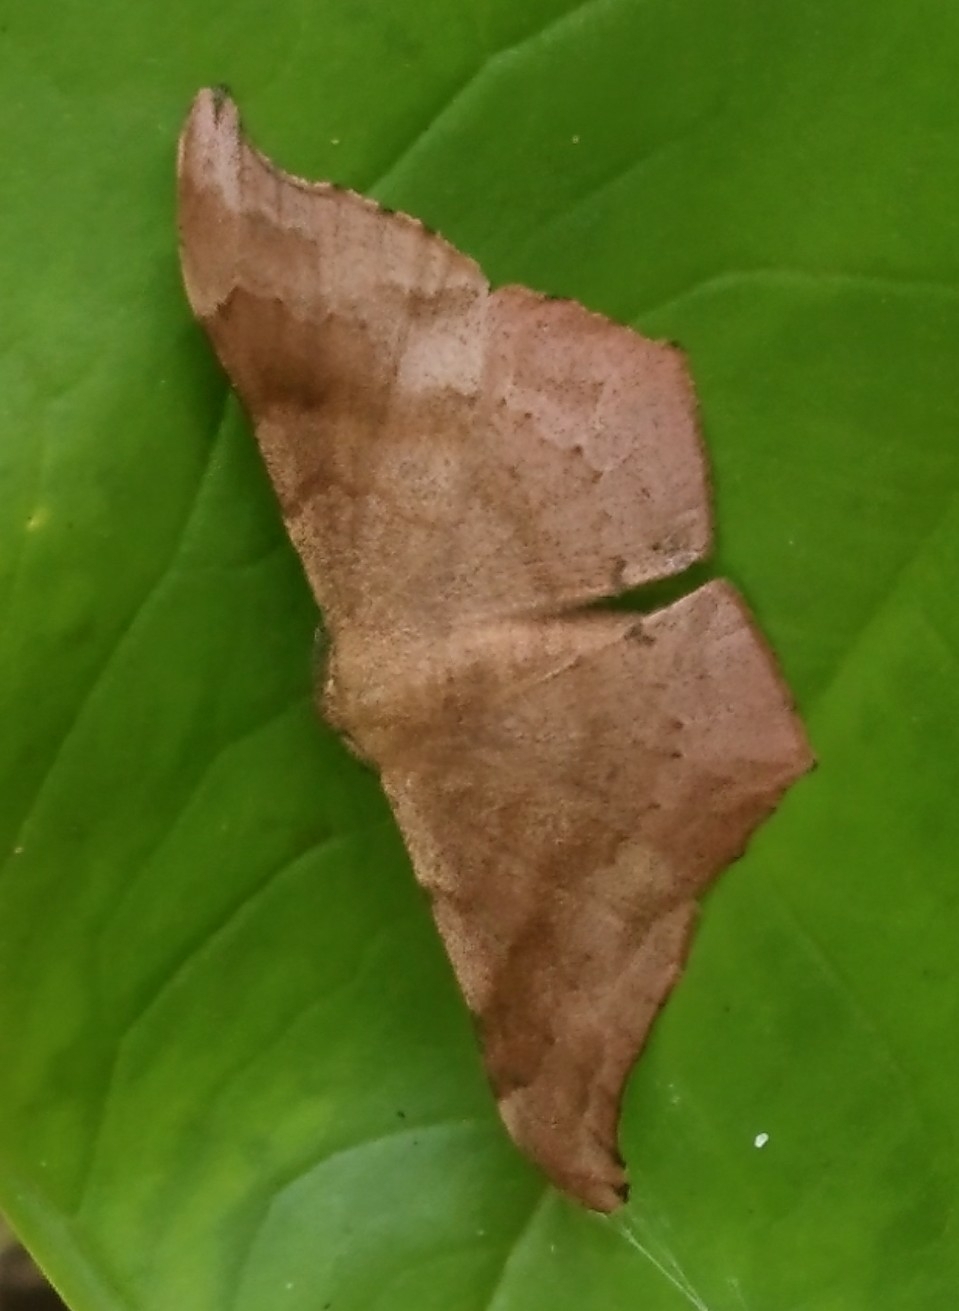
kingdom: Animalia
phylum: Arthropoda
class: Insecta
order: Lepidoptera
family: Geometridae
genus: Hyposidra
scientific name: Hyposidra talaca
